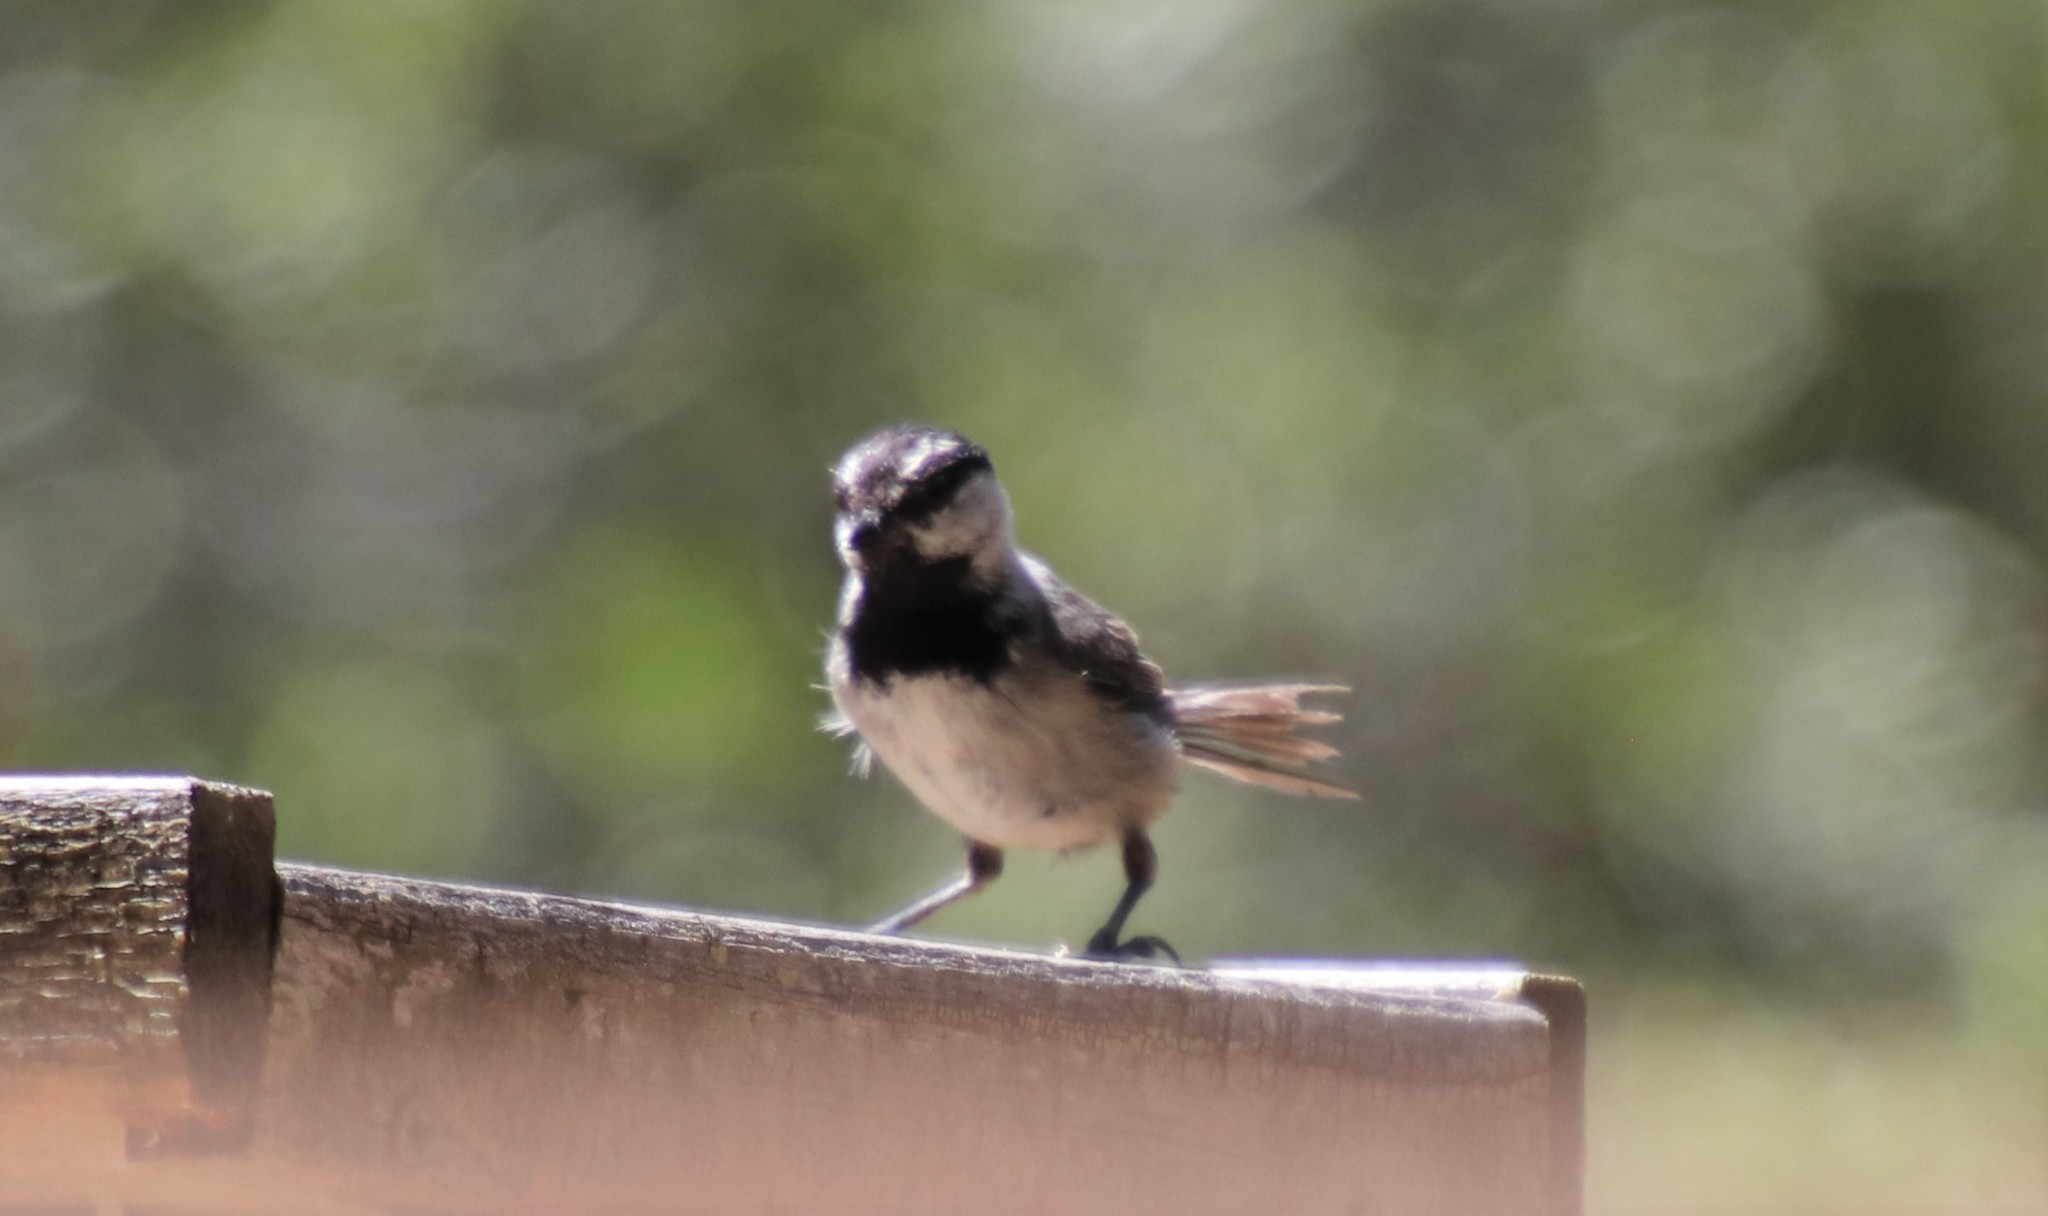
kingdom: Animalia
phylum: Chordata
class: Aves
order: Passeriformes
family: Paridae
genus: Poecile
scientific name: Poecile gambeli
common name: Mountain chickadee
